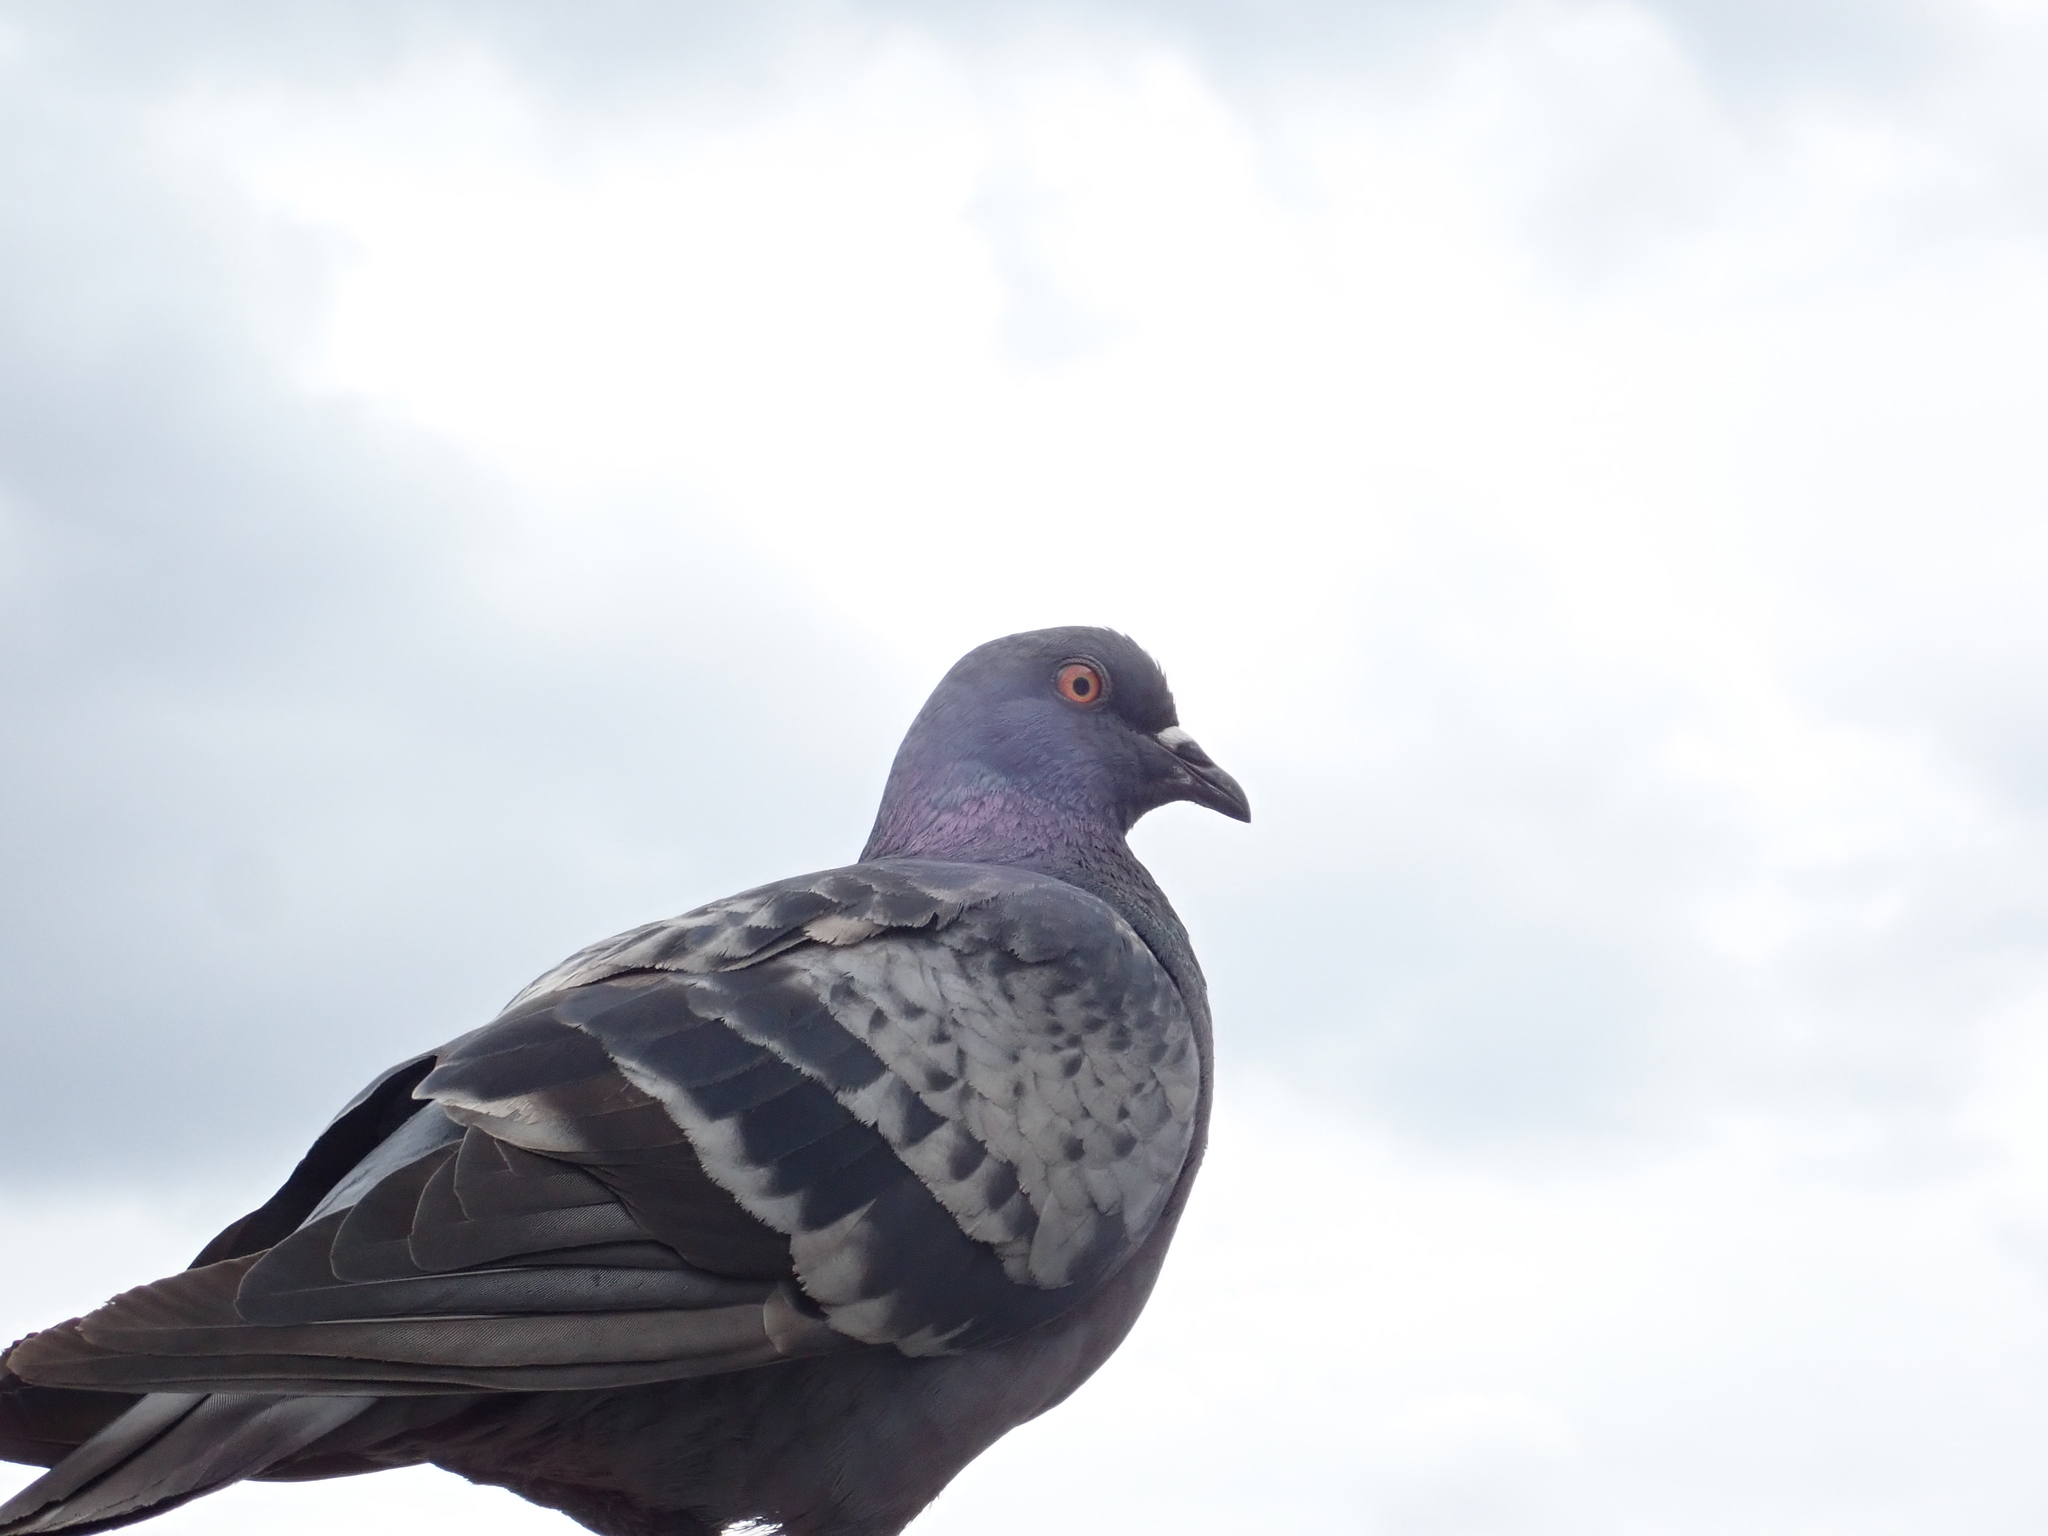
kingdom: Animalia
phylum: Chordata
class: Aves
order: Columbiformes
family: Columbidae
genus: Columba
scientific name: Columba livia
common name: Rock pigeon
